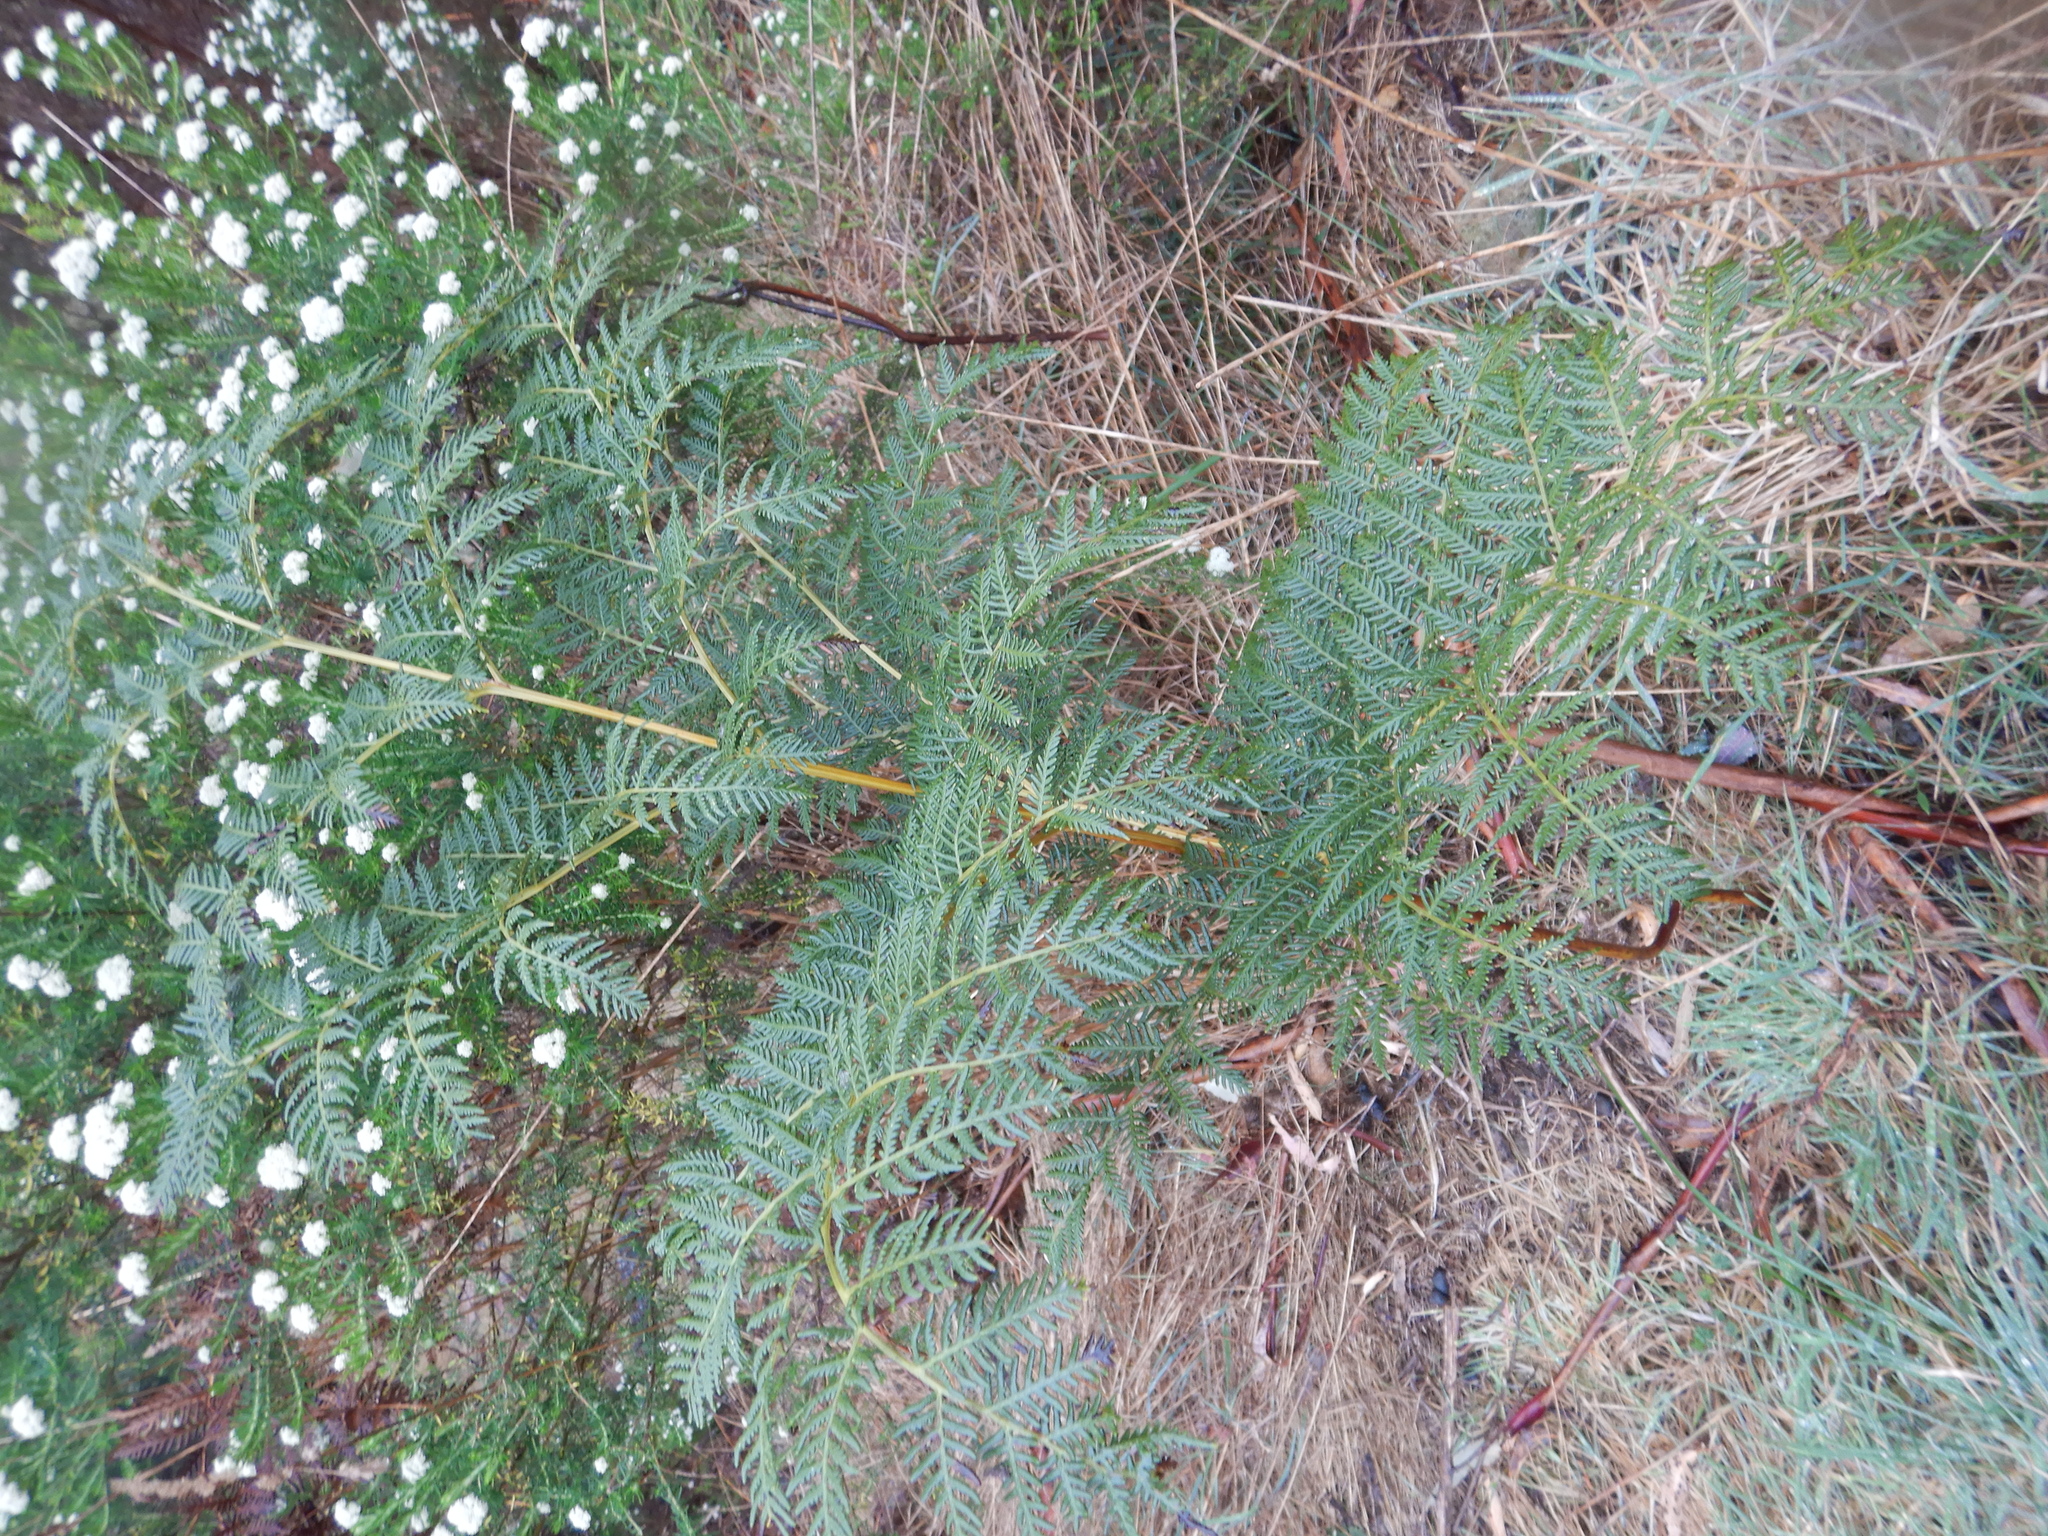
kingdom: Plantae
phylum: Tracheophyta
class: Polypodiopsida
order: Polypodiales
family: Dennstaedtiaceae
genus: Pteridium
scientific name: Pteridium esculentum
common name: Bracken fern
